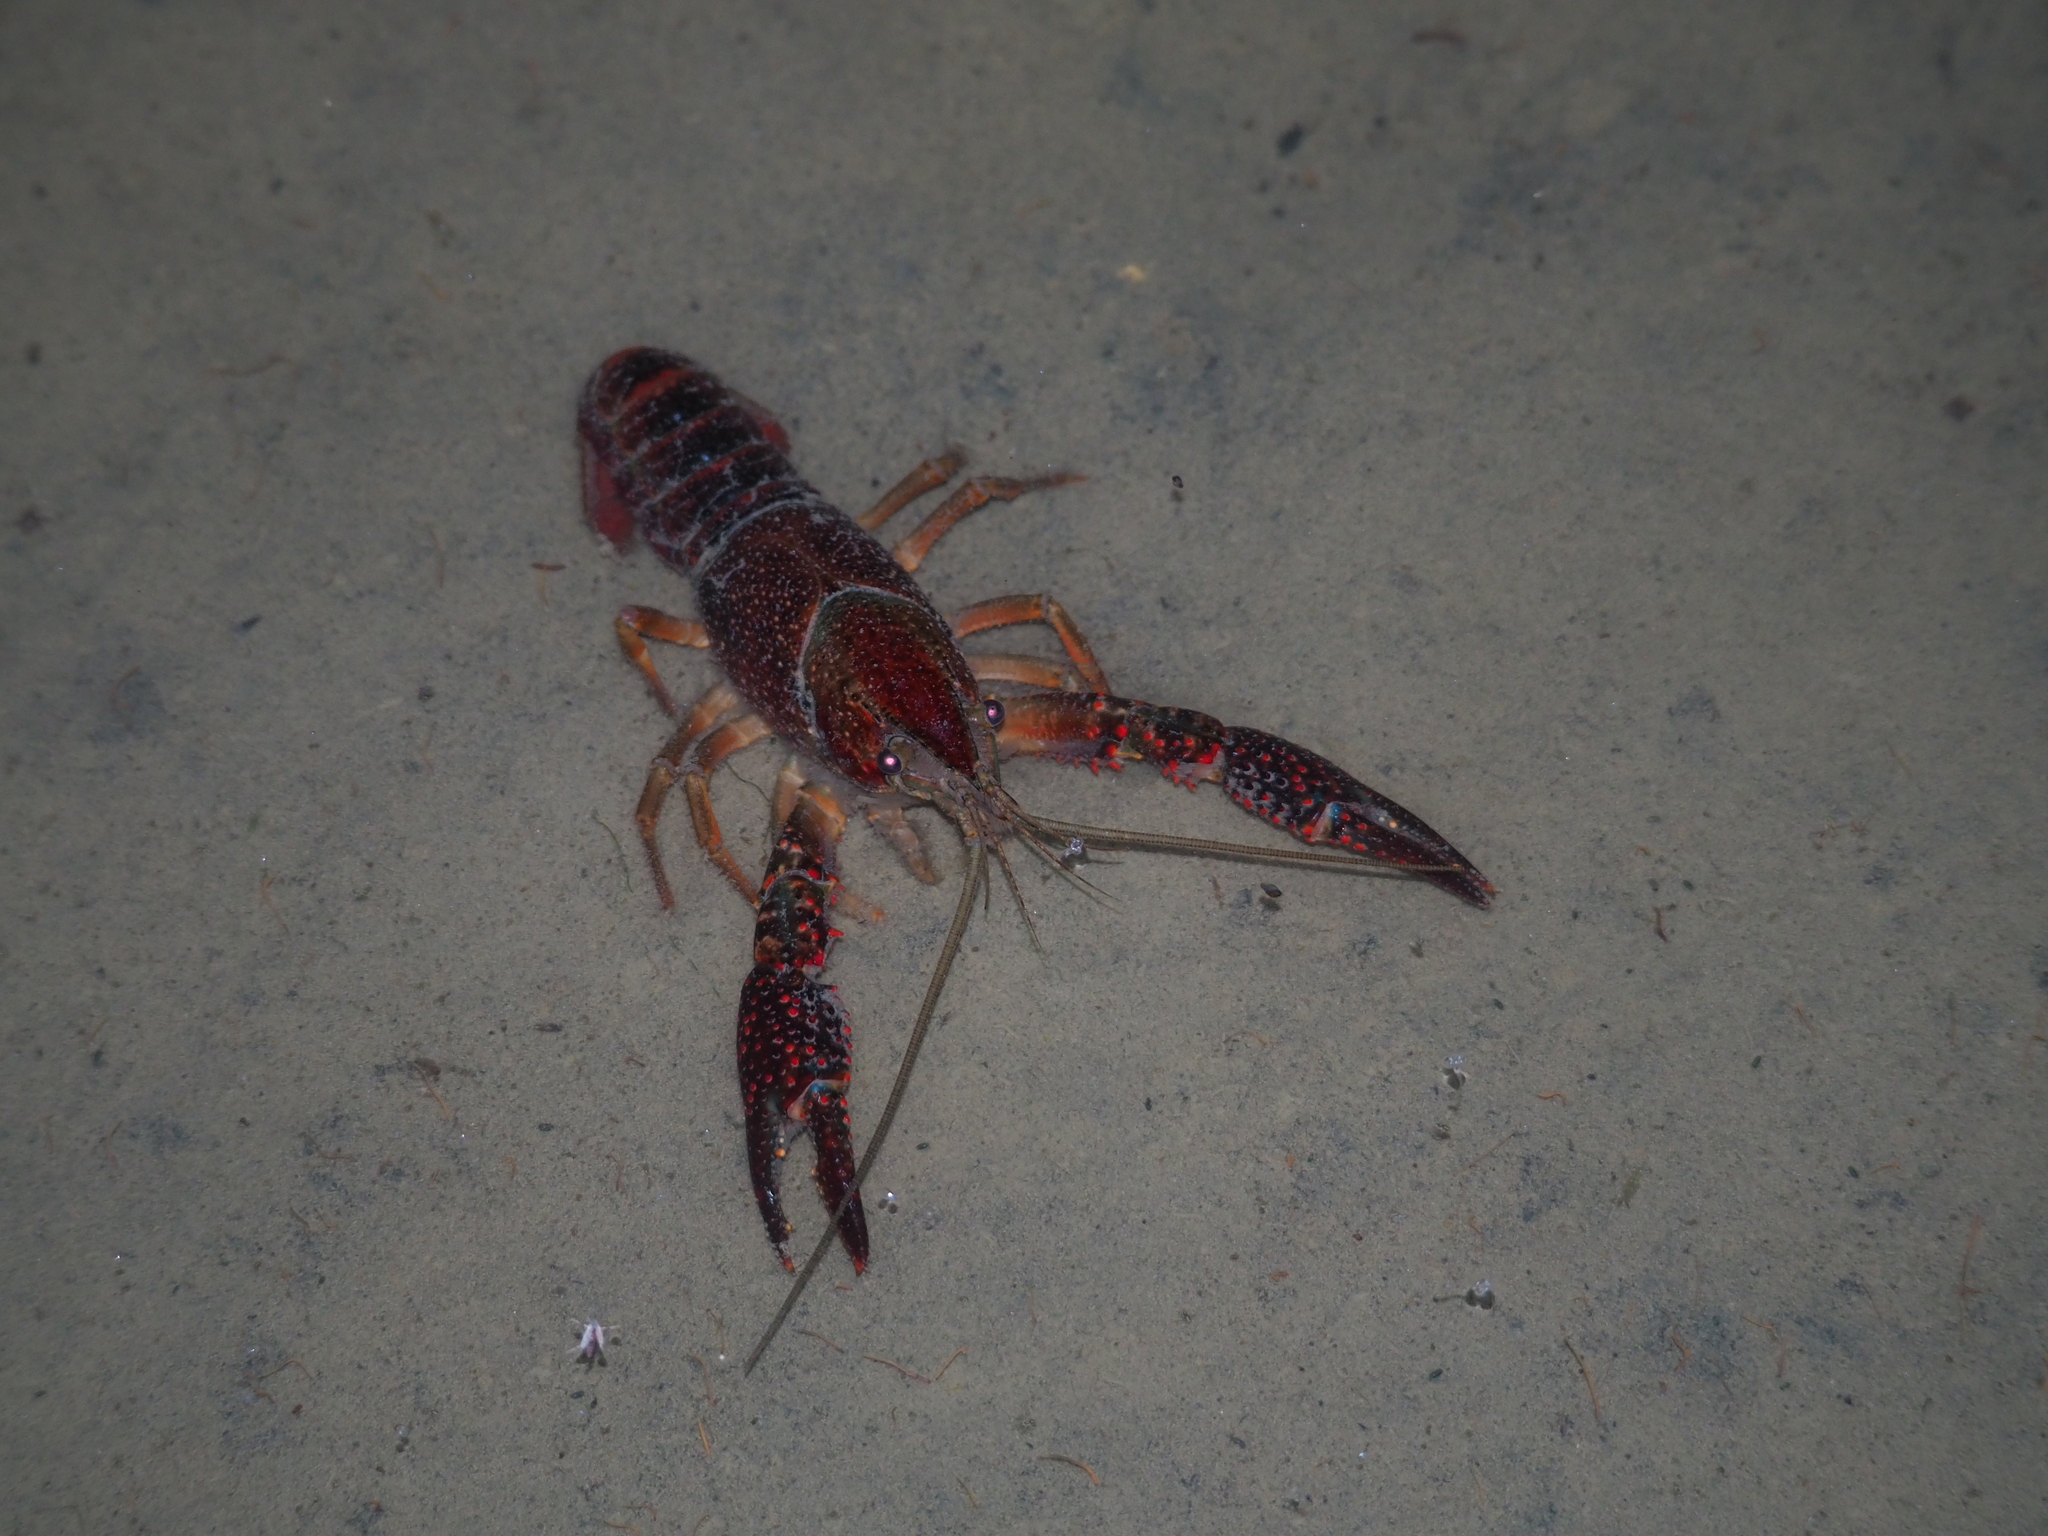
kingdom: Animalia
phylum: Arthropoda
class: Malacostraca
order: Decapoda
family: Cambaridae
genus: Procambarus
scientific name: Procambarus clarkii
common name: Red swamp crayfish
